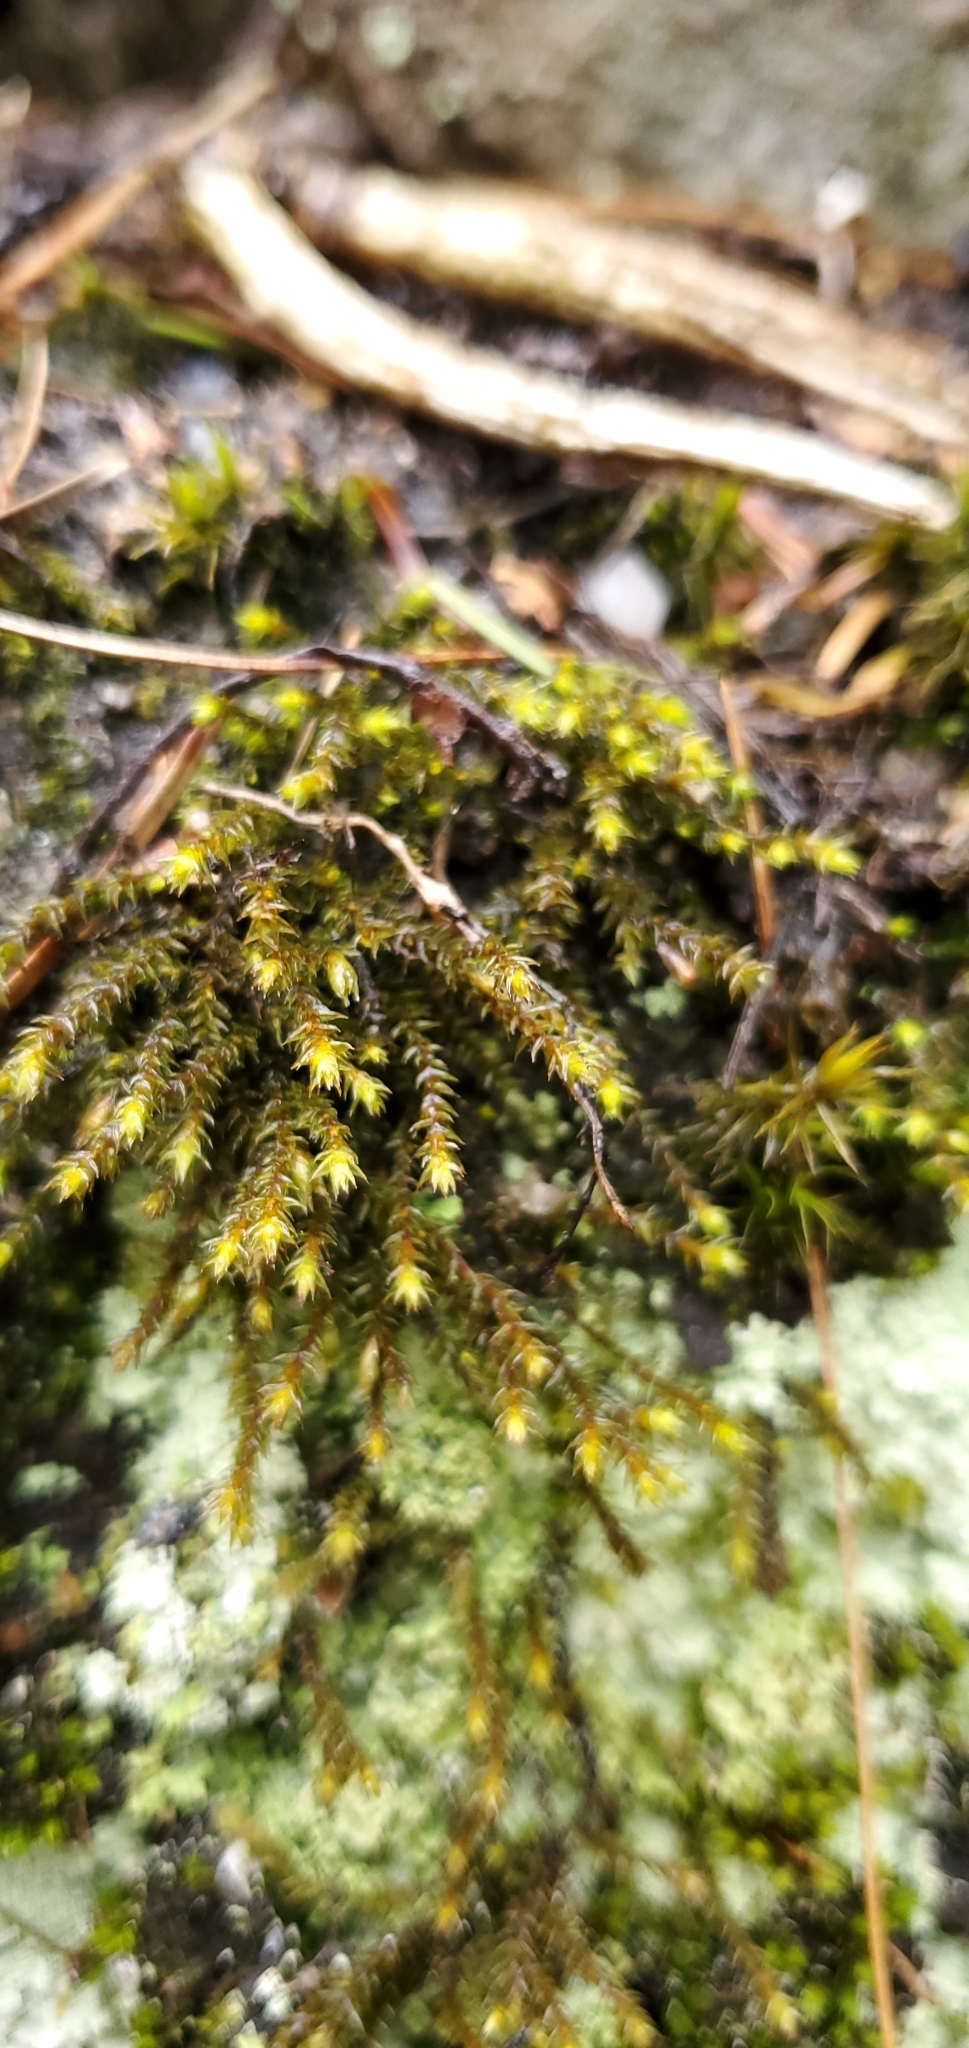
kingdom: Plantae
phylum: Bryophyta
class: Bryopsida
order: Hedwigiales
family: Hedwigiaceae
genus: Hedwigia
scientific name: Hedwigia ciliata
